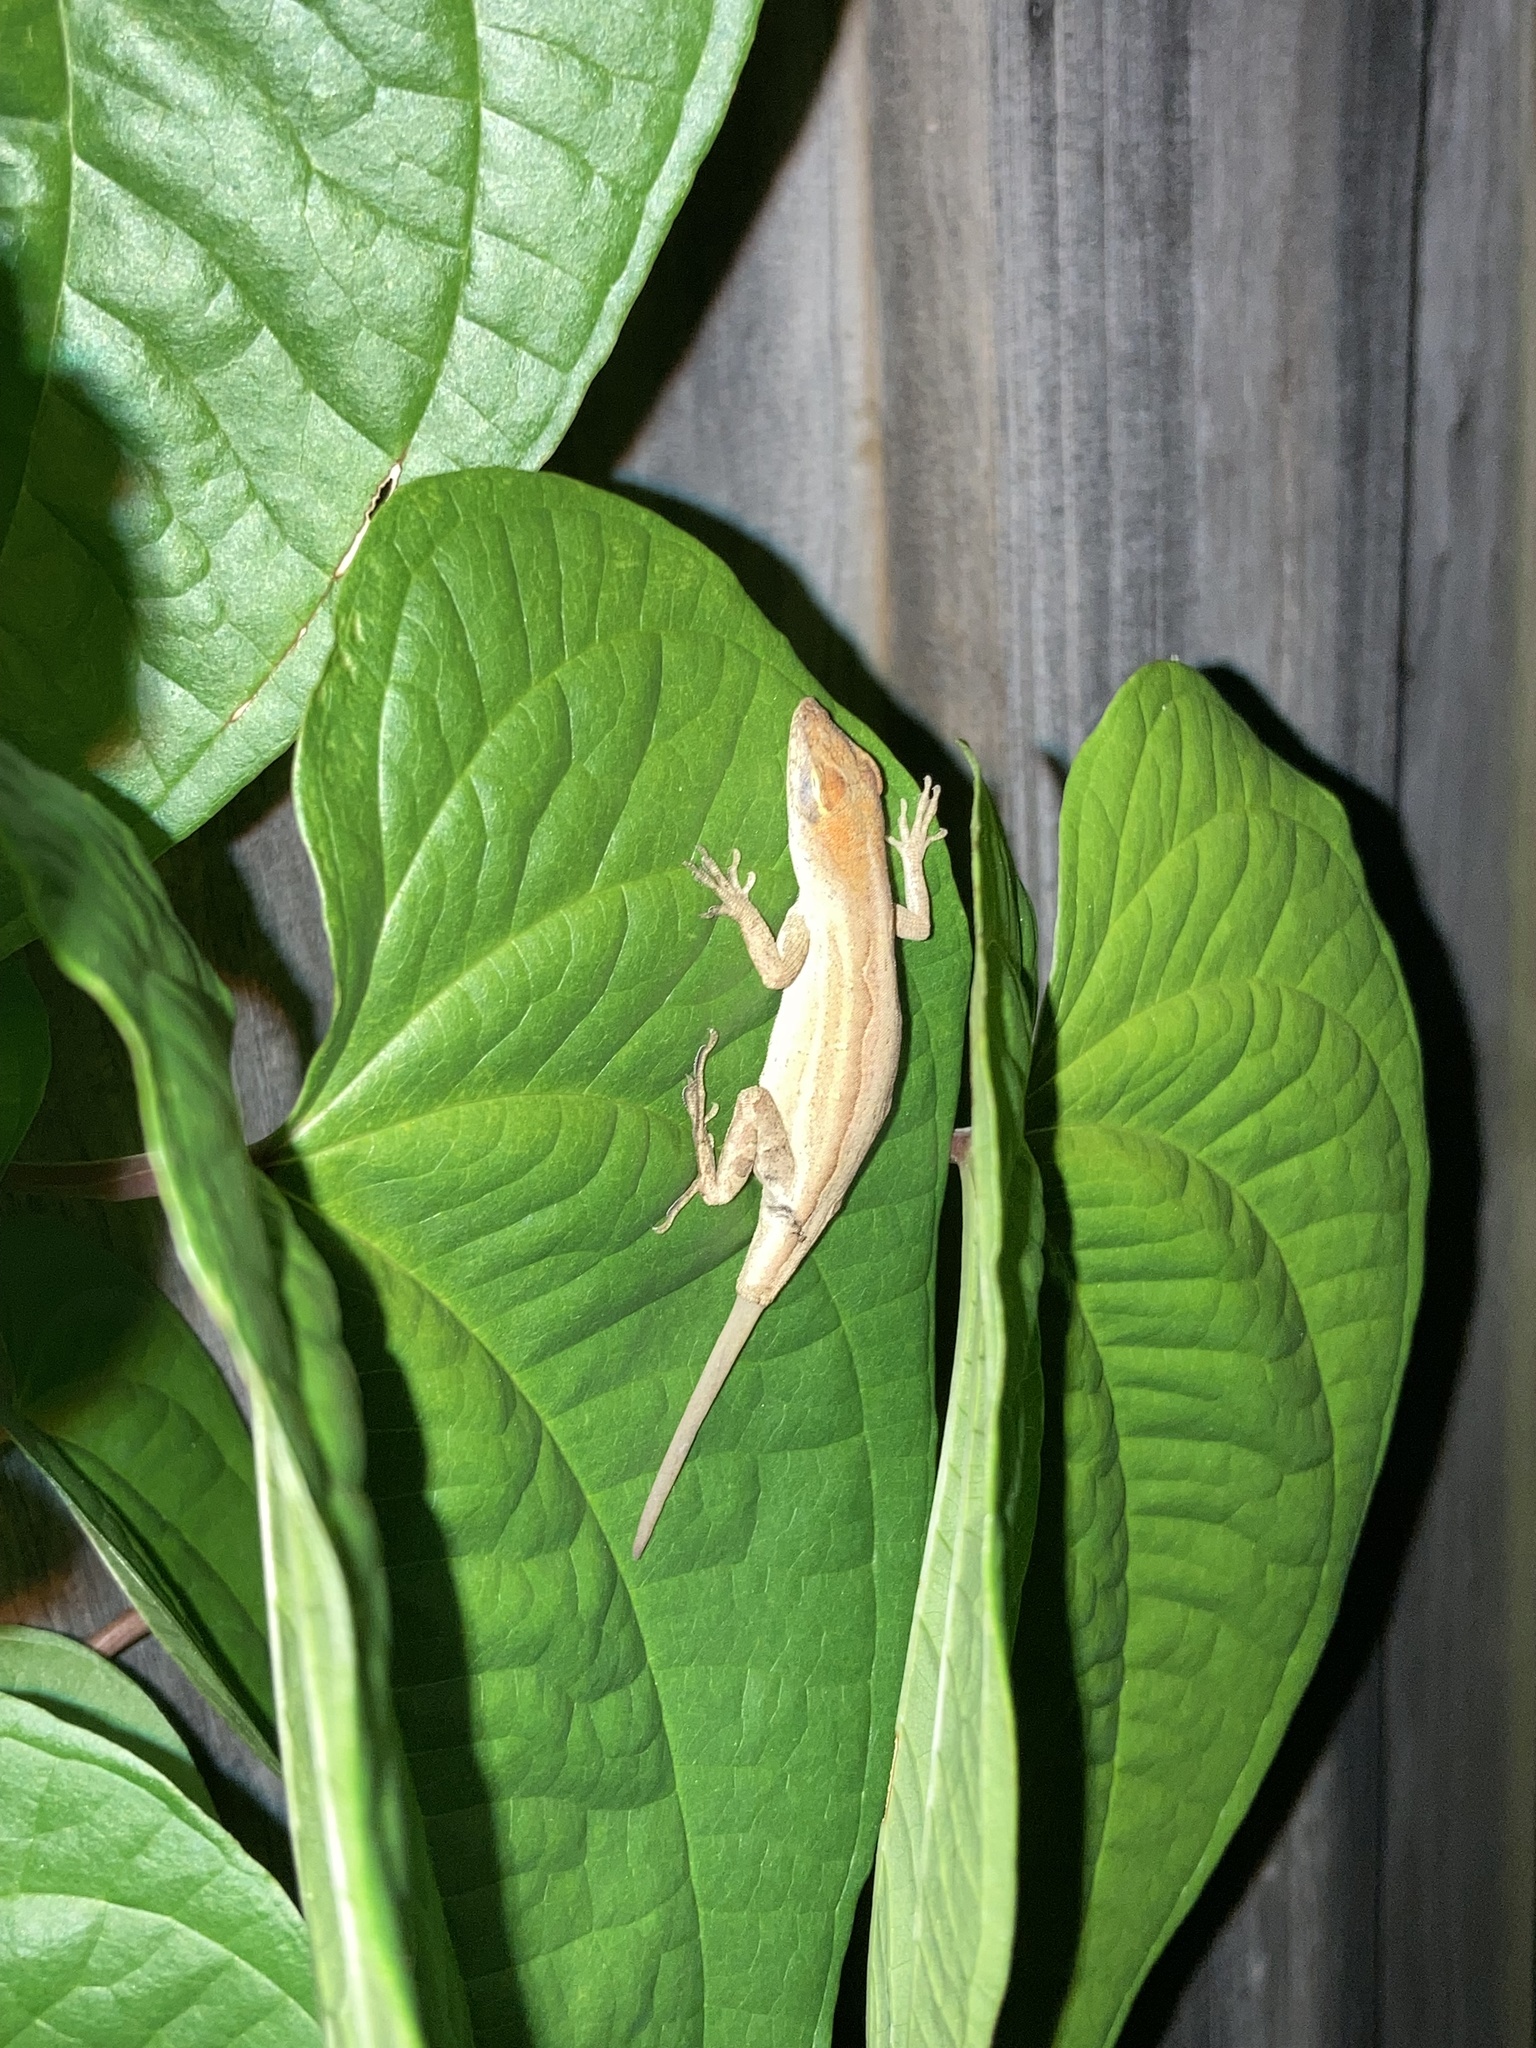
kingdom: Animalia
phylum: Chordata
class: Squamata
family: Dactyloidae
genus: Anolis
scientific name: Anolis sagrei
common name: Brown anole
